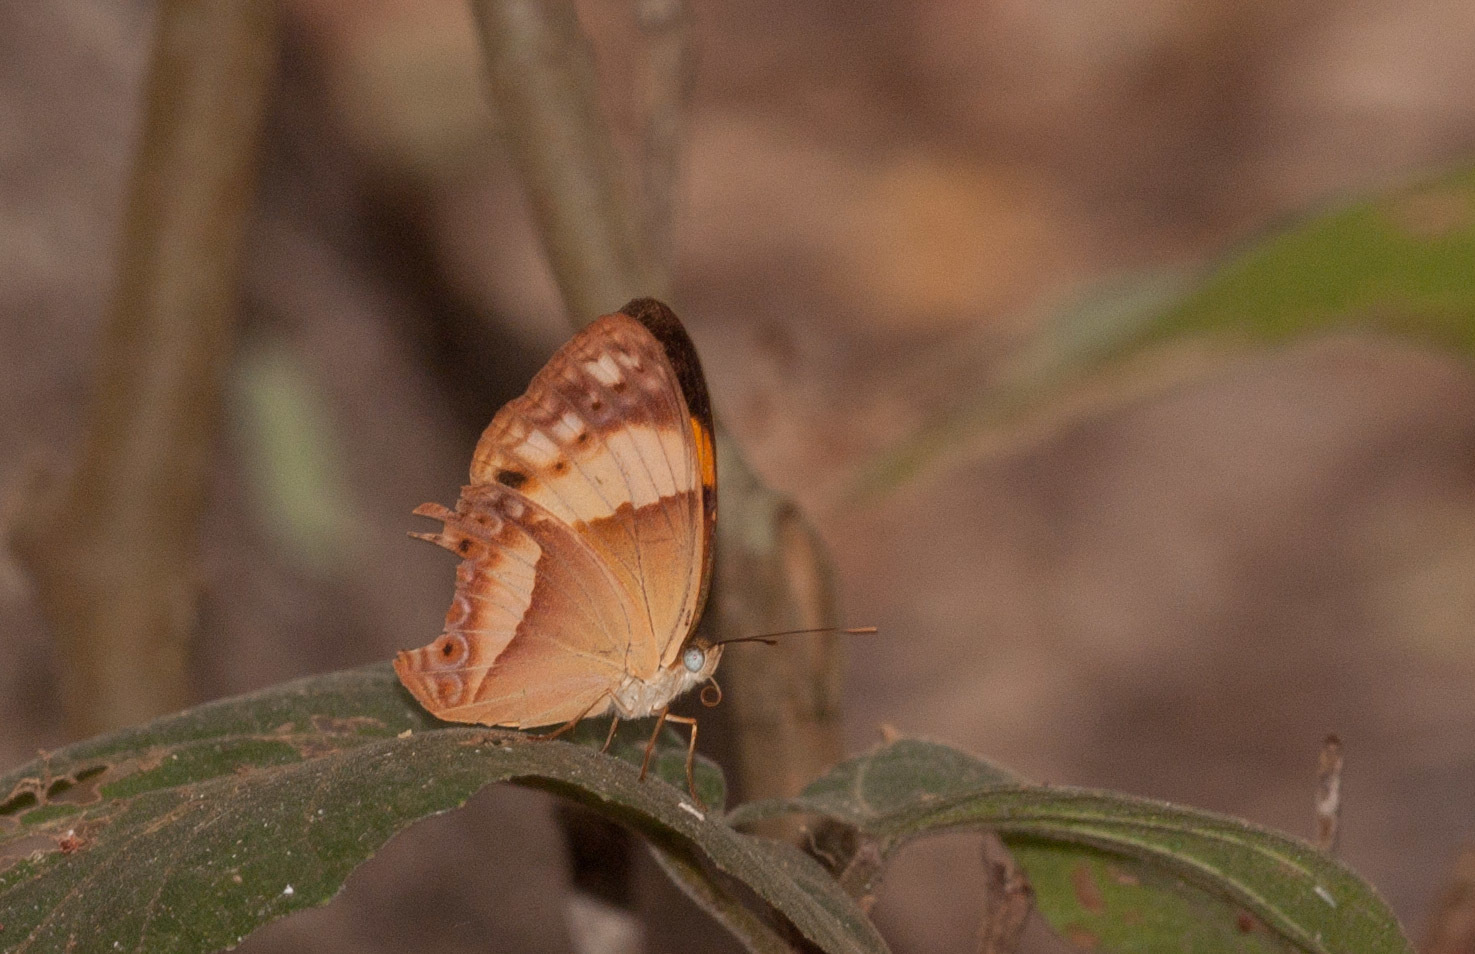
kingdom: Animalia
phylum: Arthropoda
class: Insecta
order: Lepidoptera
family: Nymphalidae
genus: Cupha
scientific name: Cupha prosope
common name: Bordered rustic
